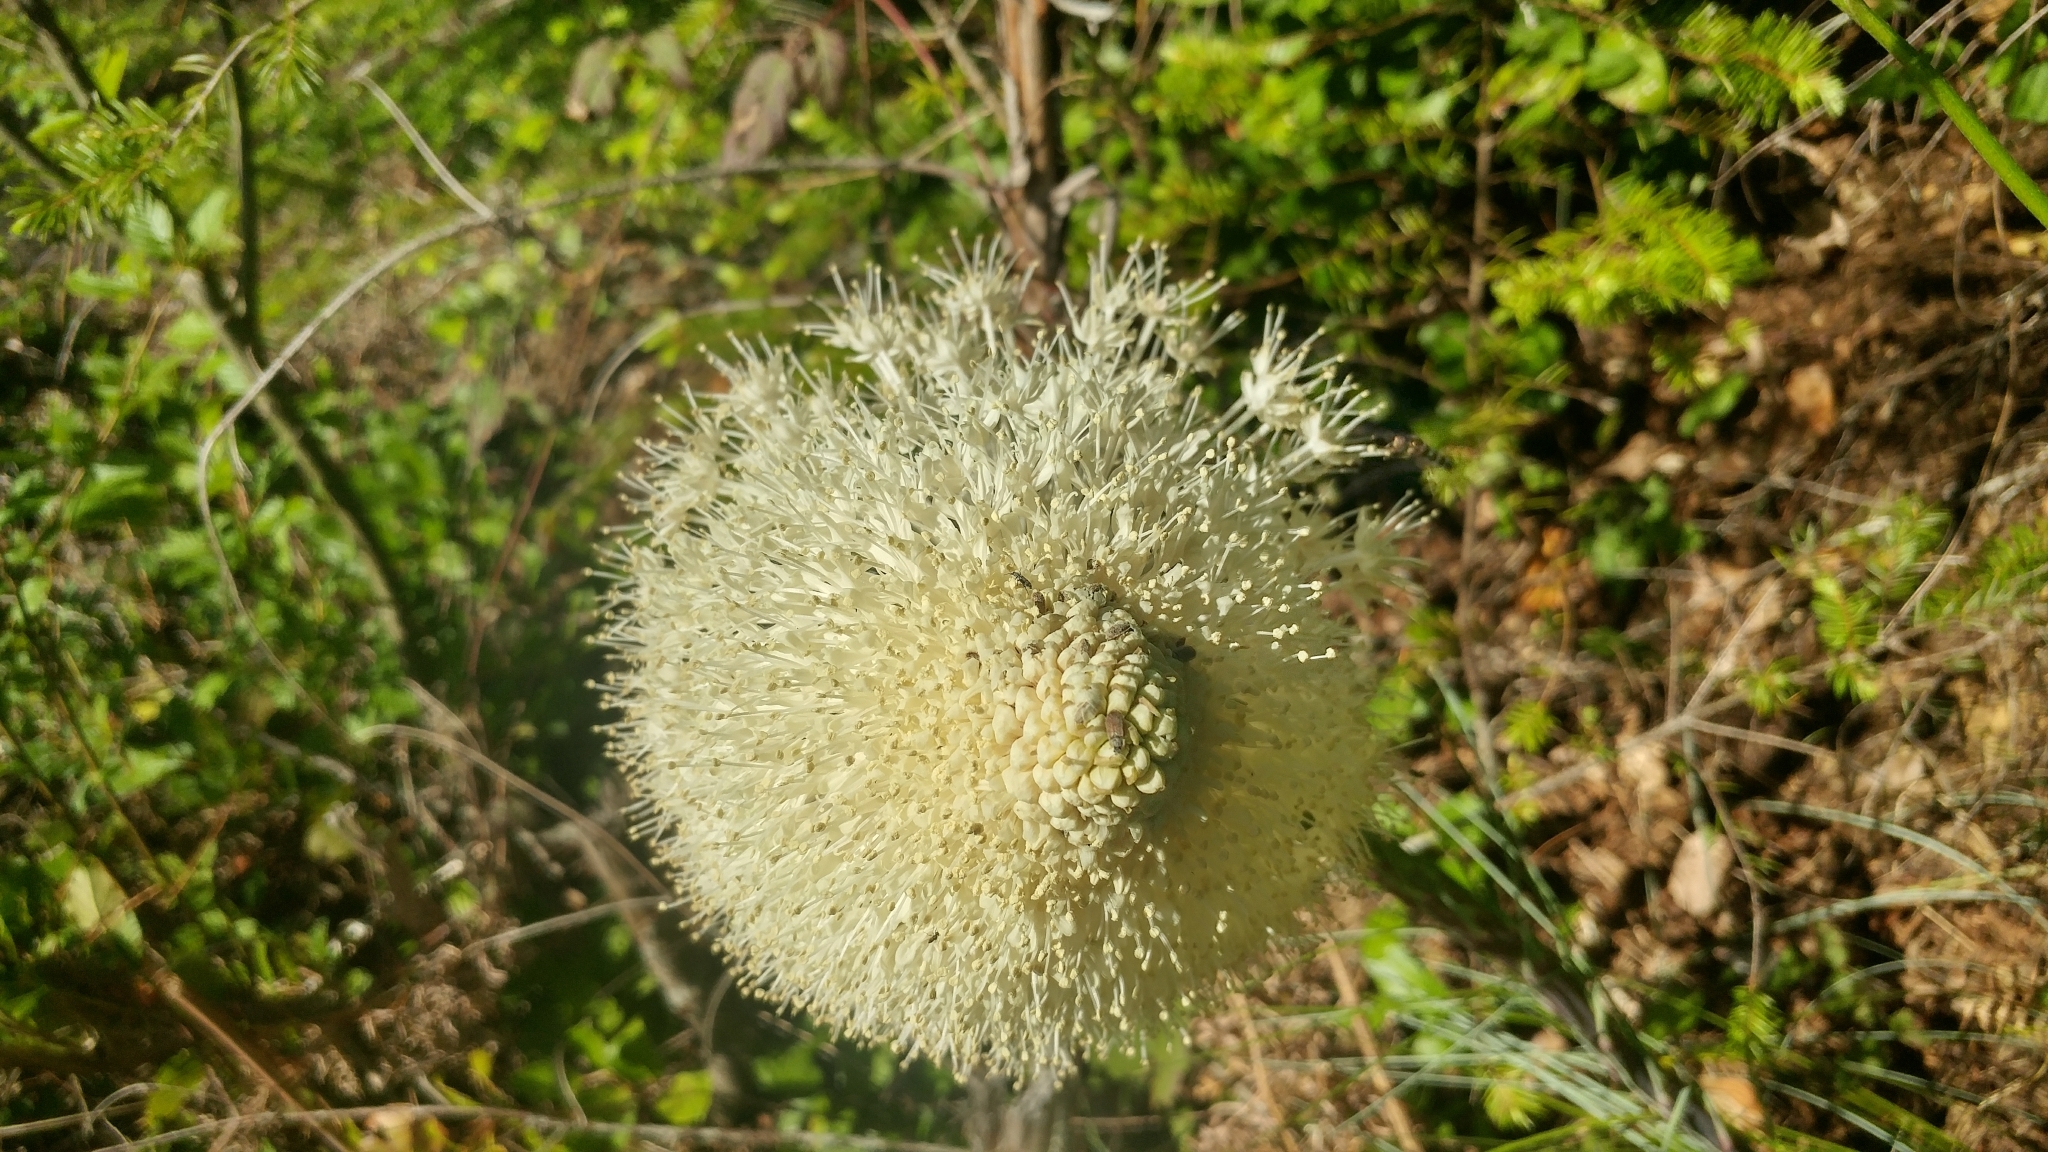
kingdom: Plantae
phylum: Tracheophyta
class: Liliopsida
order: Liliales
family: Melanthiaceae
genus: Xerophyllum
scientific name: Xerophyllum tenax
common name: Bear-grass
